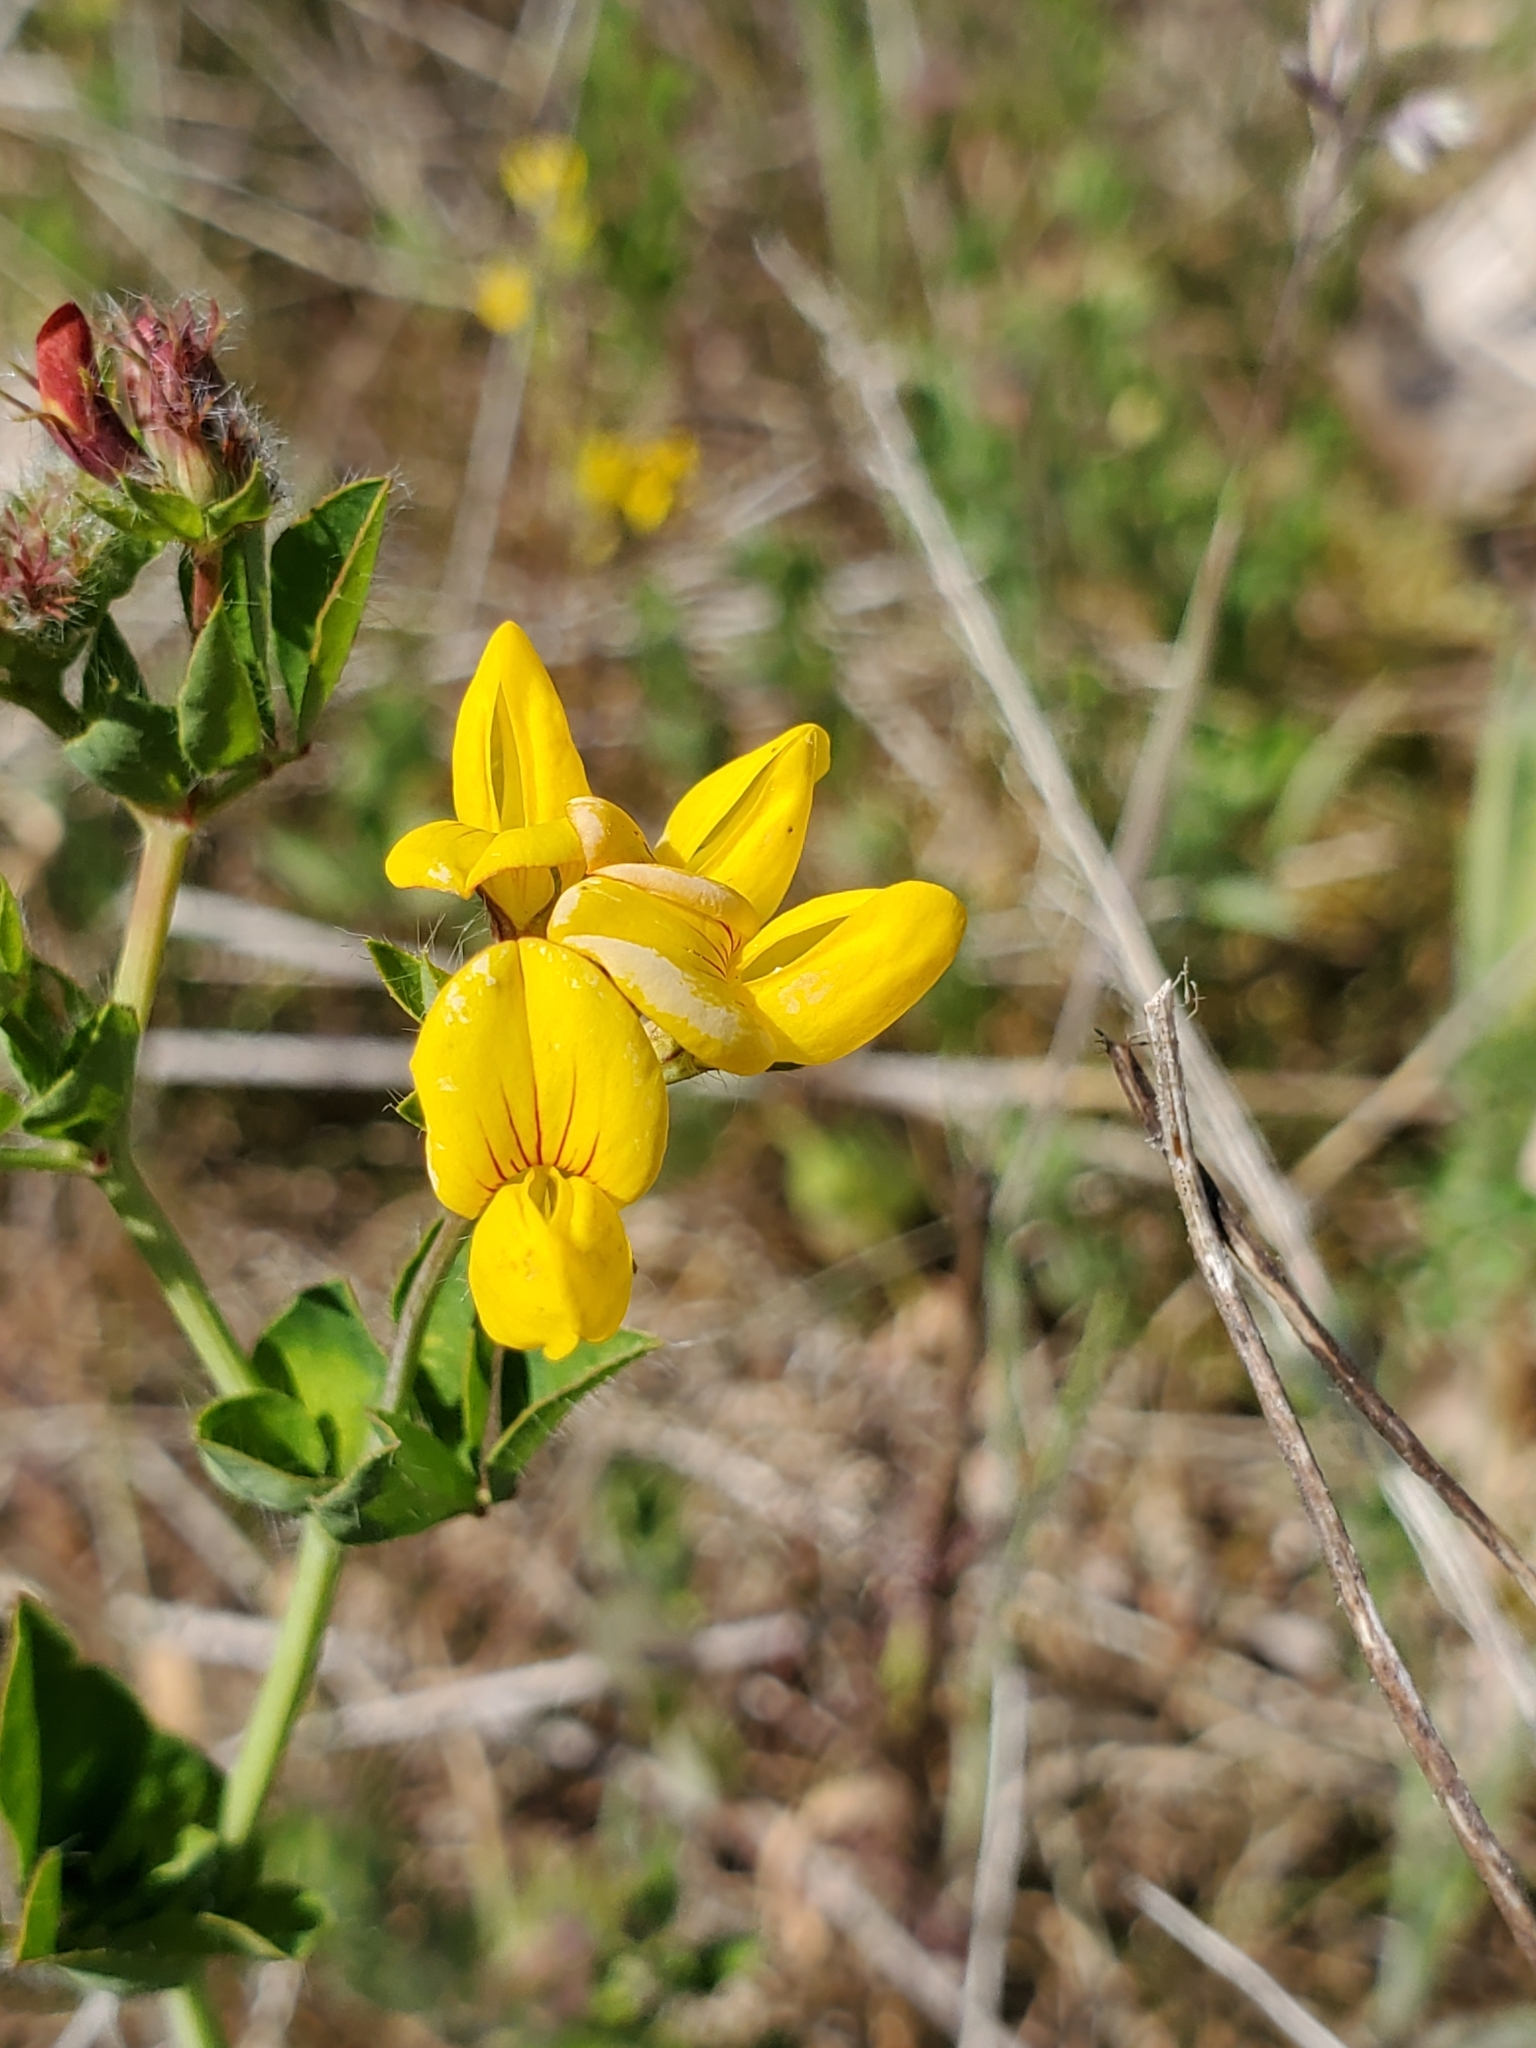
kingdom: Plantae
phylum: Tracheophyta
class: Magnoliopsida
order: Fabales
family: Fabaceae
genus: Lotus
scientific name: Lotus corniculatus
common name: Common bird's-foot-trefoil
